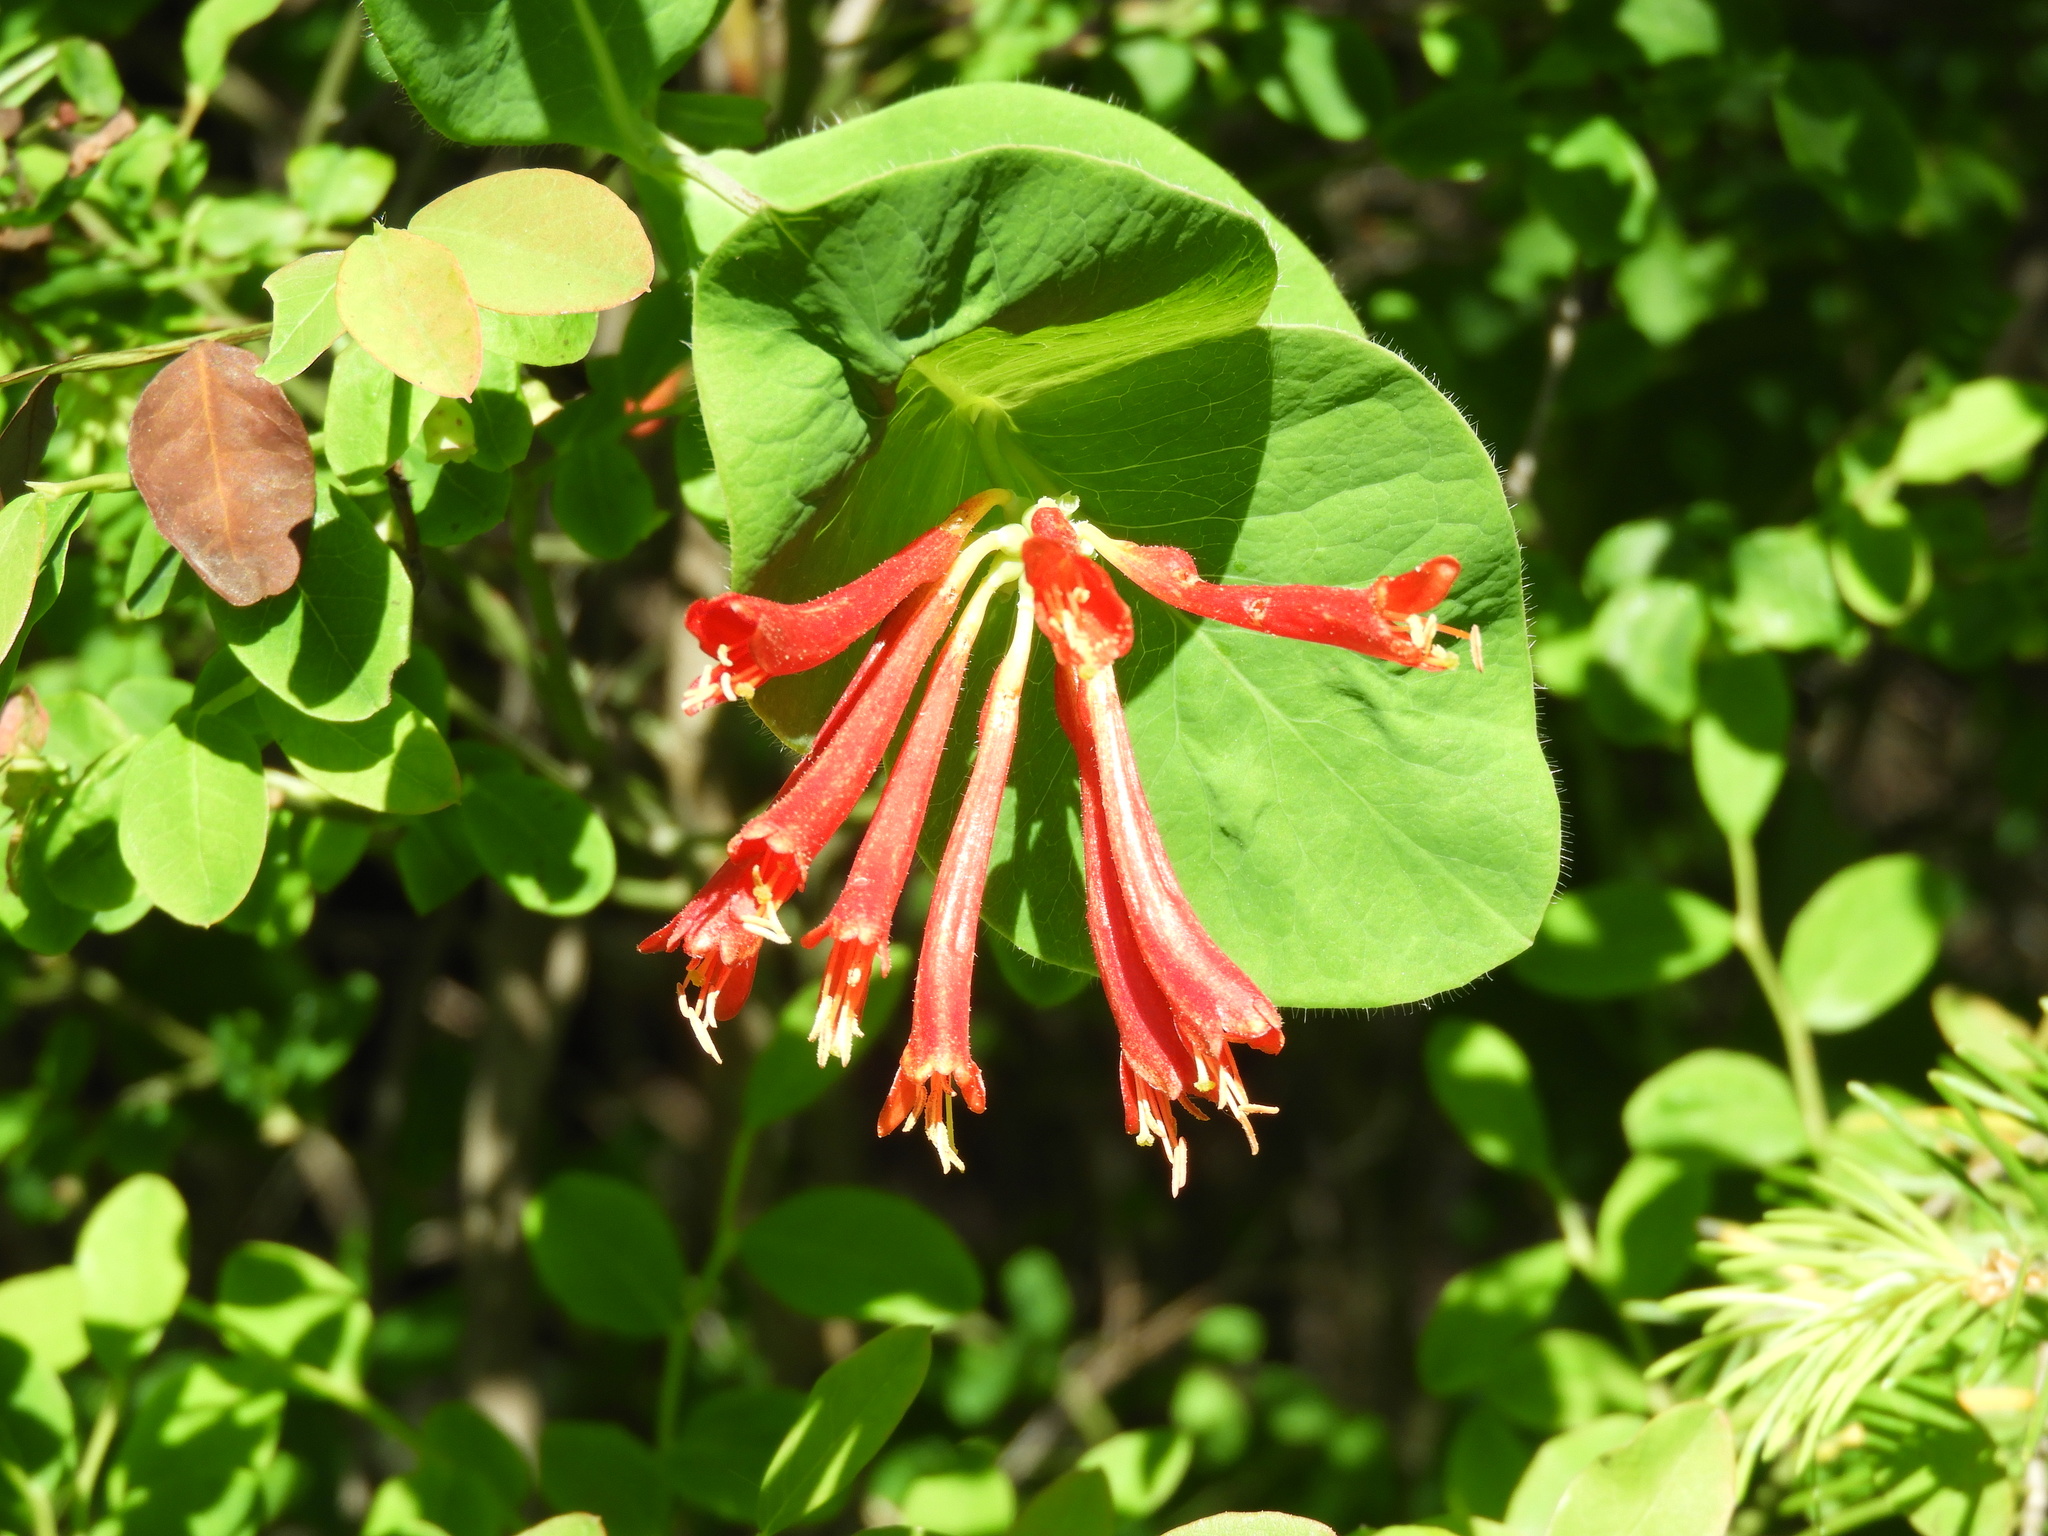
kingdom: Plantae
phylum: Tracheophyta
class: Magnoliopsida
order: Dipsacales
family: Caprifoliaceae
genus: Lonicera
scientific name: Lonicera ciliosa
